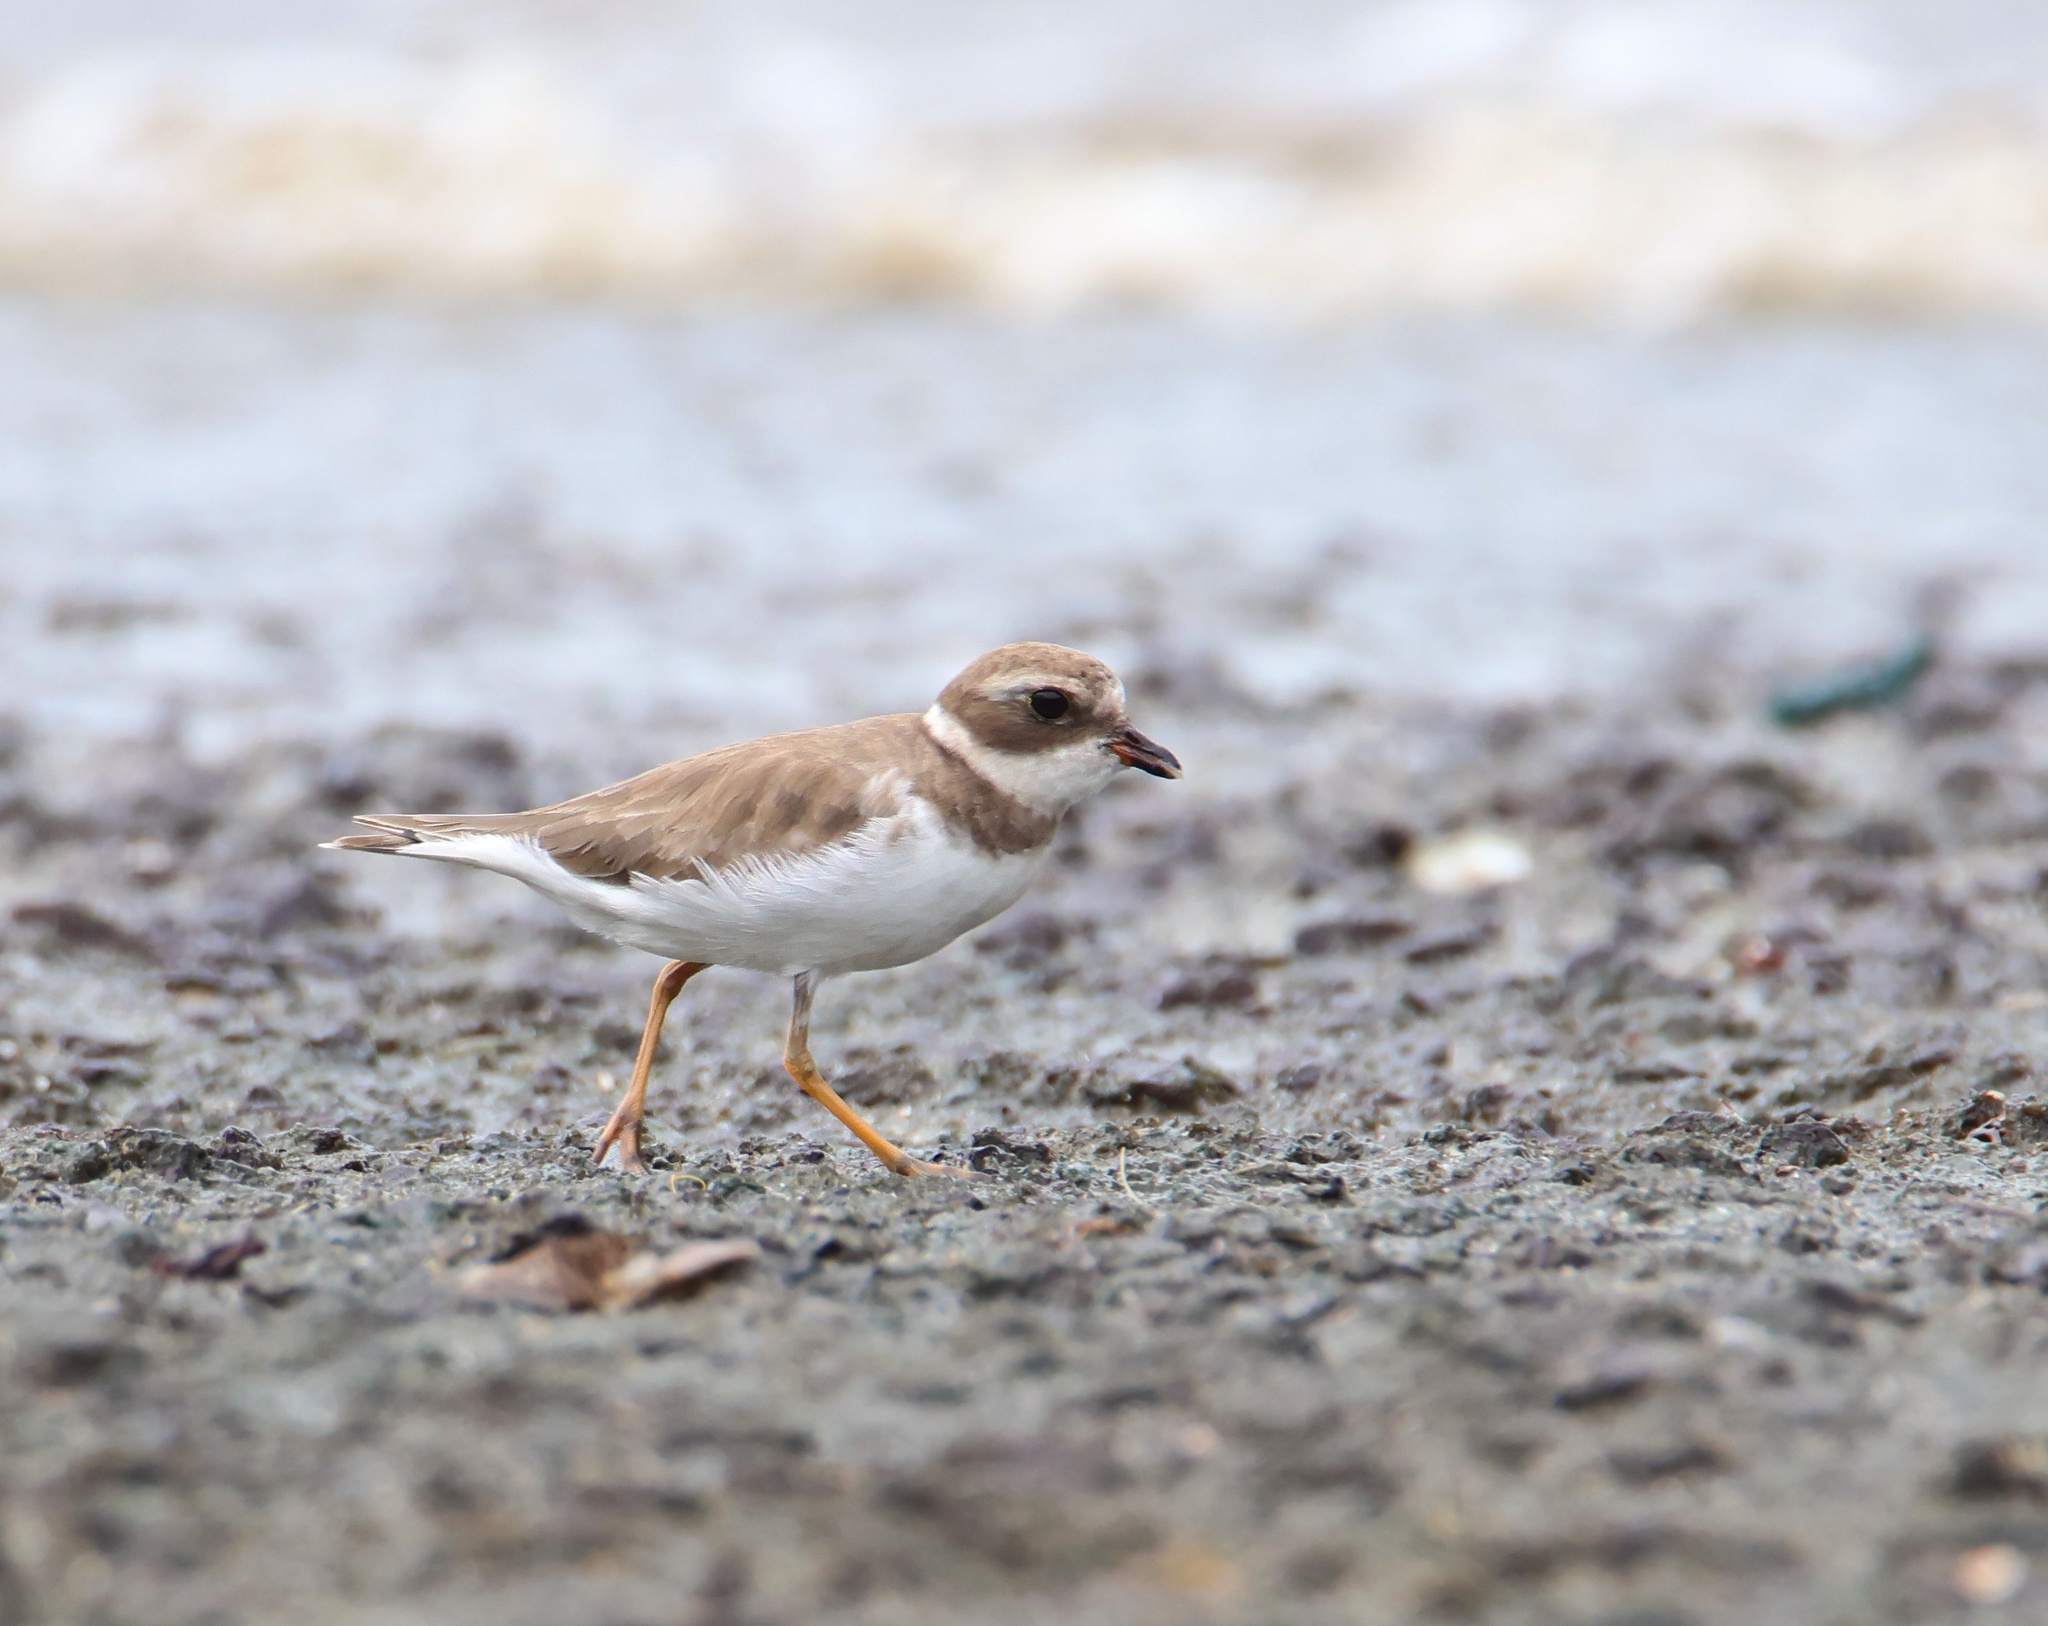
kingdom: Animalia
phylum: Chordata
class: Aves
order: Charadriiformes
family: Charadriidae
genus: Charadrius
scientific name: Charadrius semipalmatus
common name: Semipalmated plover
